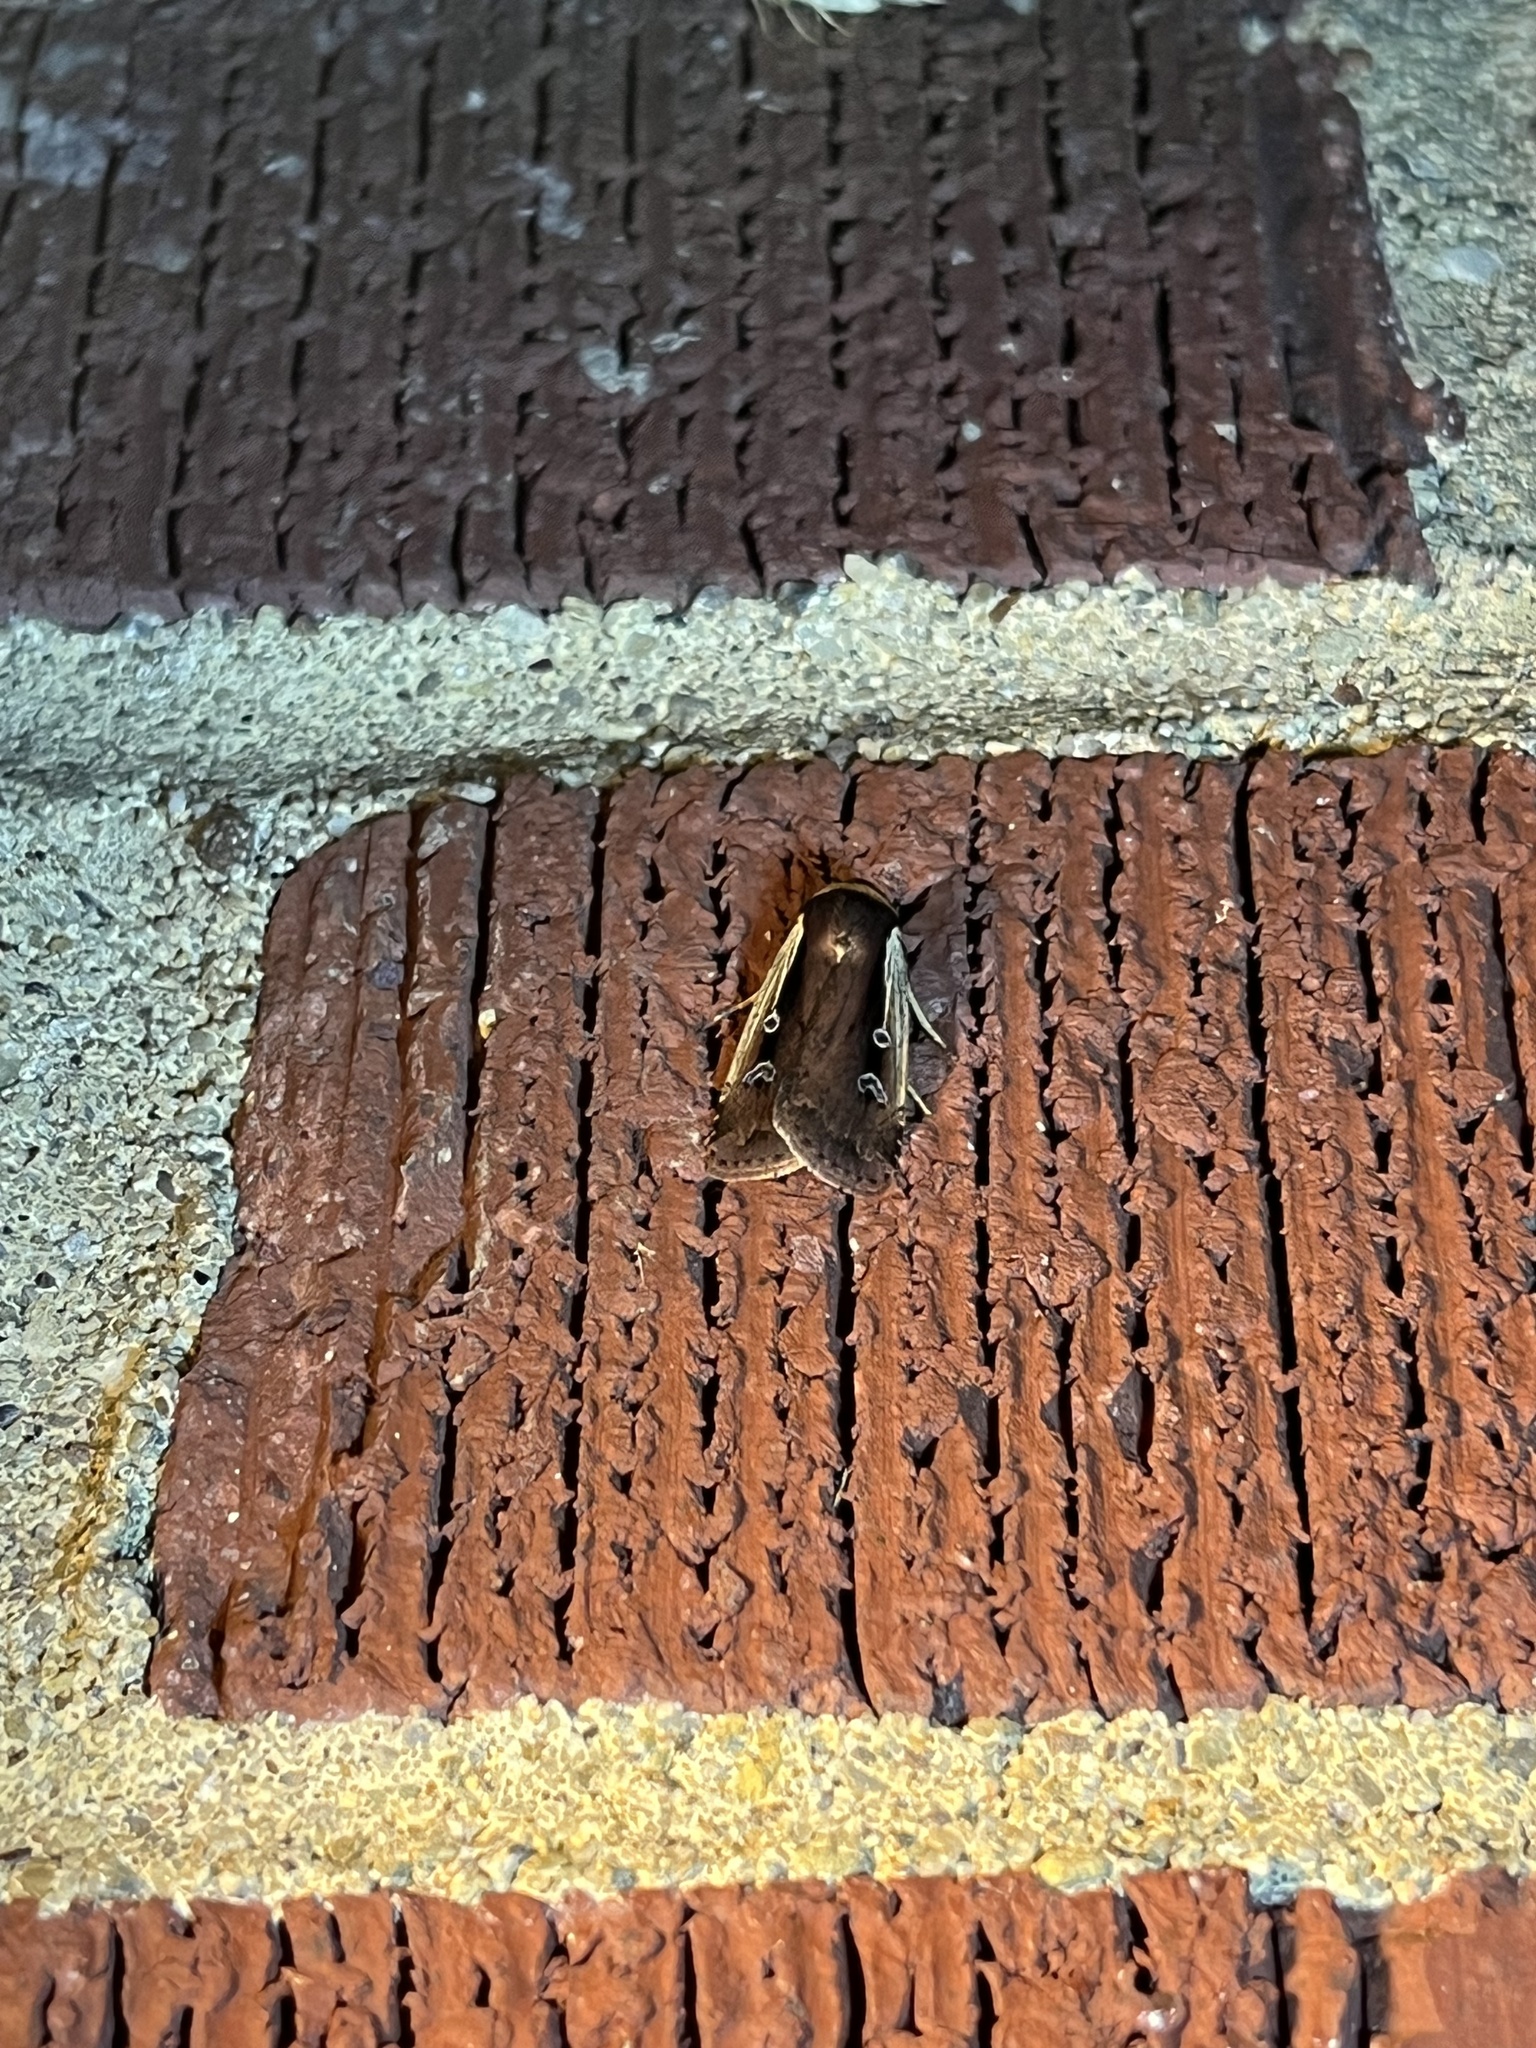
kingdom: Animalia
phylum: Arthropoda
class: Insecta
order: Lepidoptera
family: Noctuidae
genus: Ochropleura
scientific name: Ochropleura implecta
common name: Flame-shouldered dart
